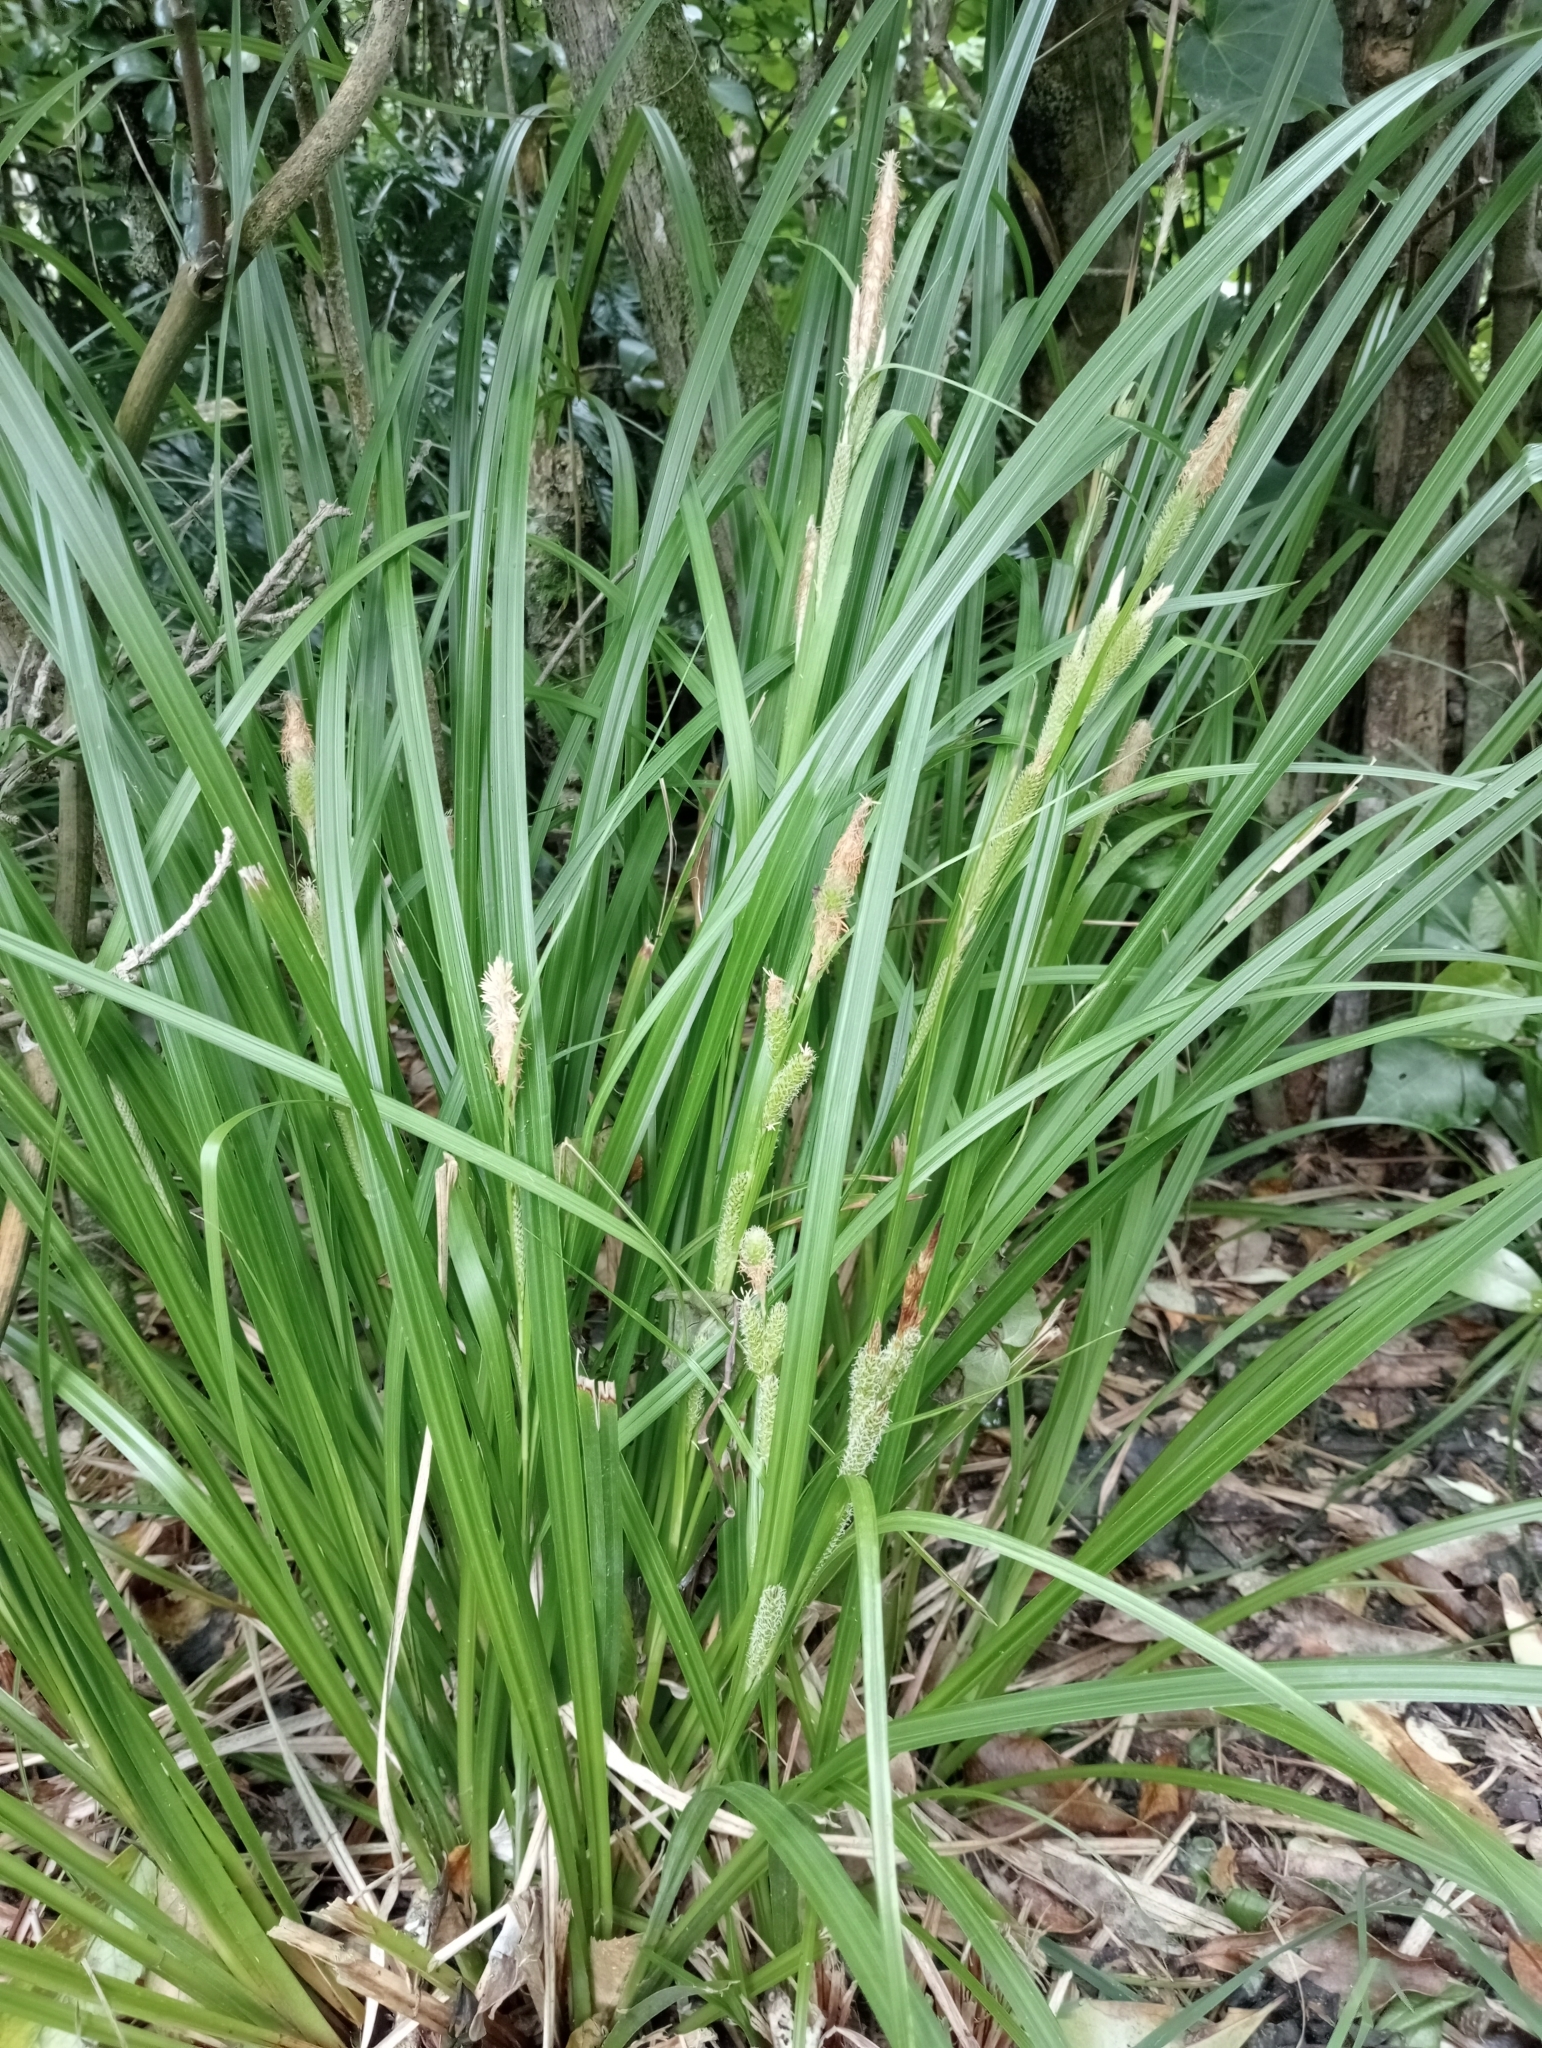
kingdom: Plantae
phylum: Tracheophyta
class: Liliopsida
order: Poales
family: Cyperaceae
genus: Carex
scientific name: Carex ventosa
